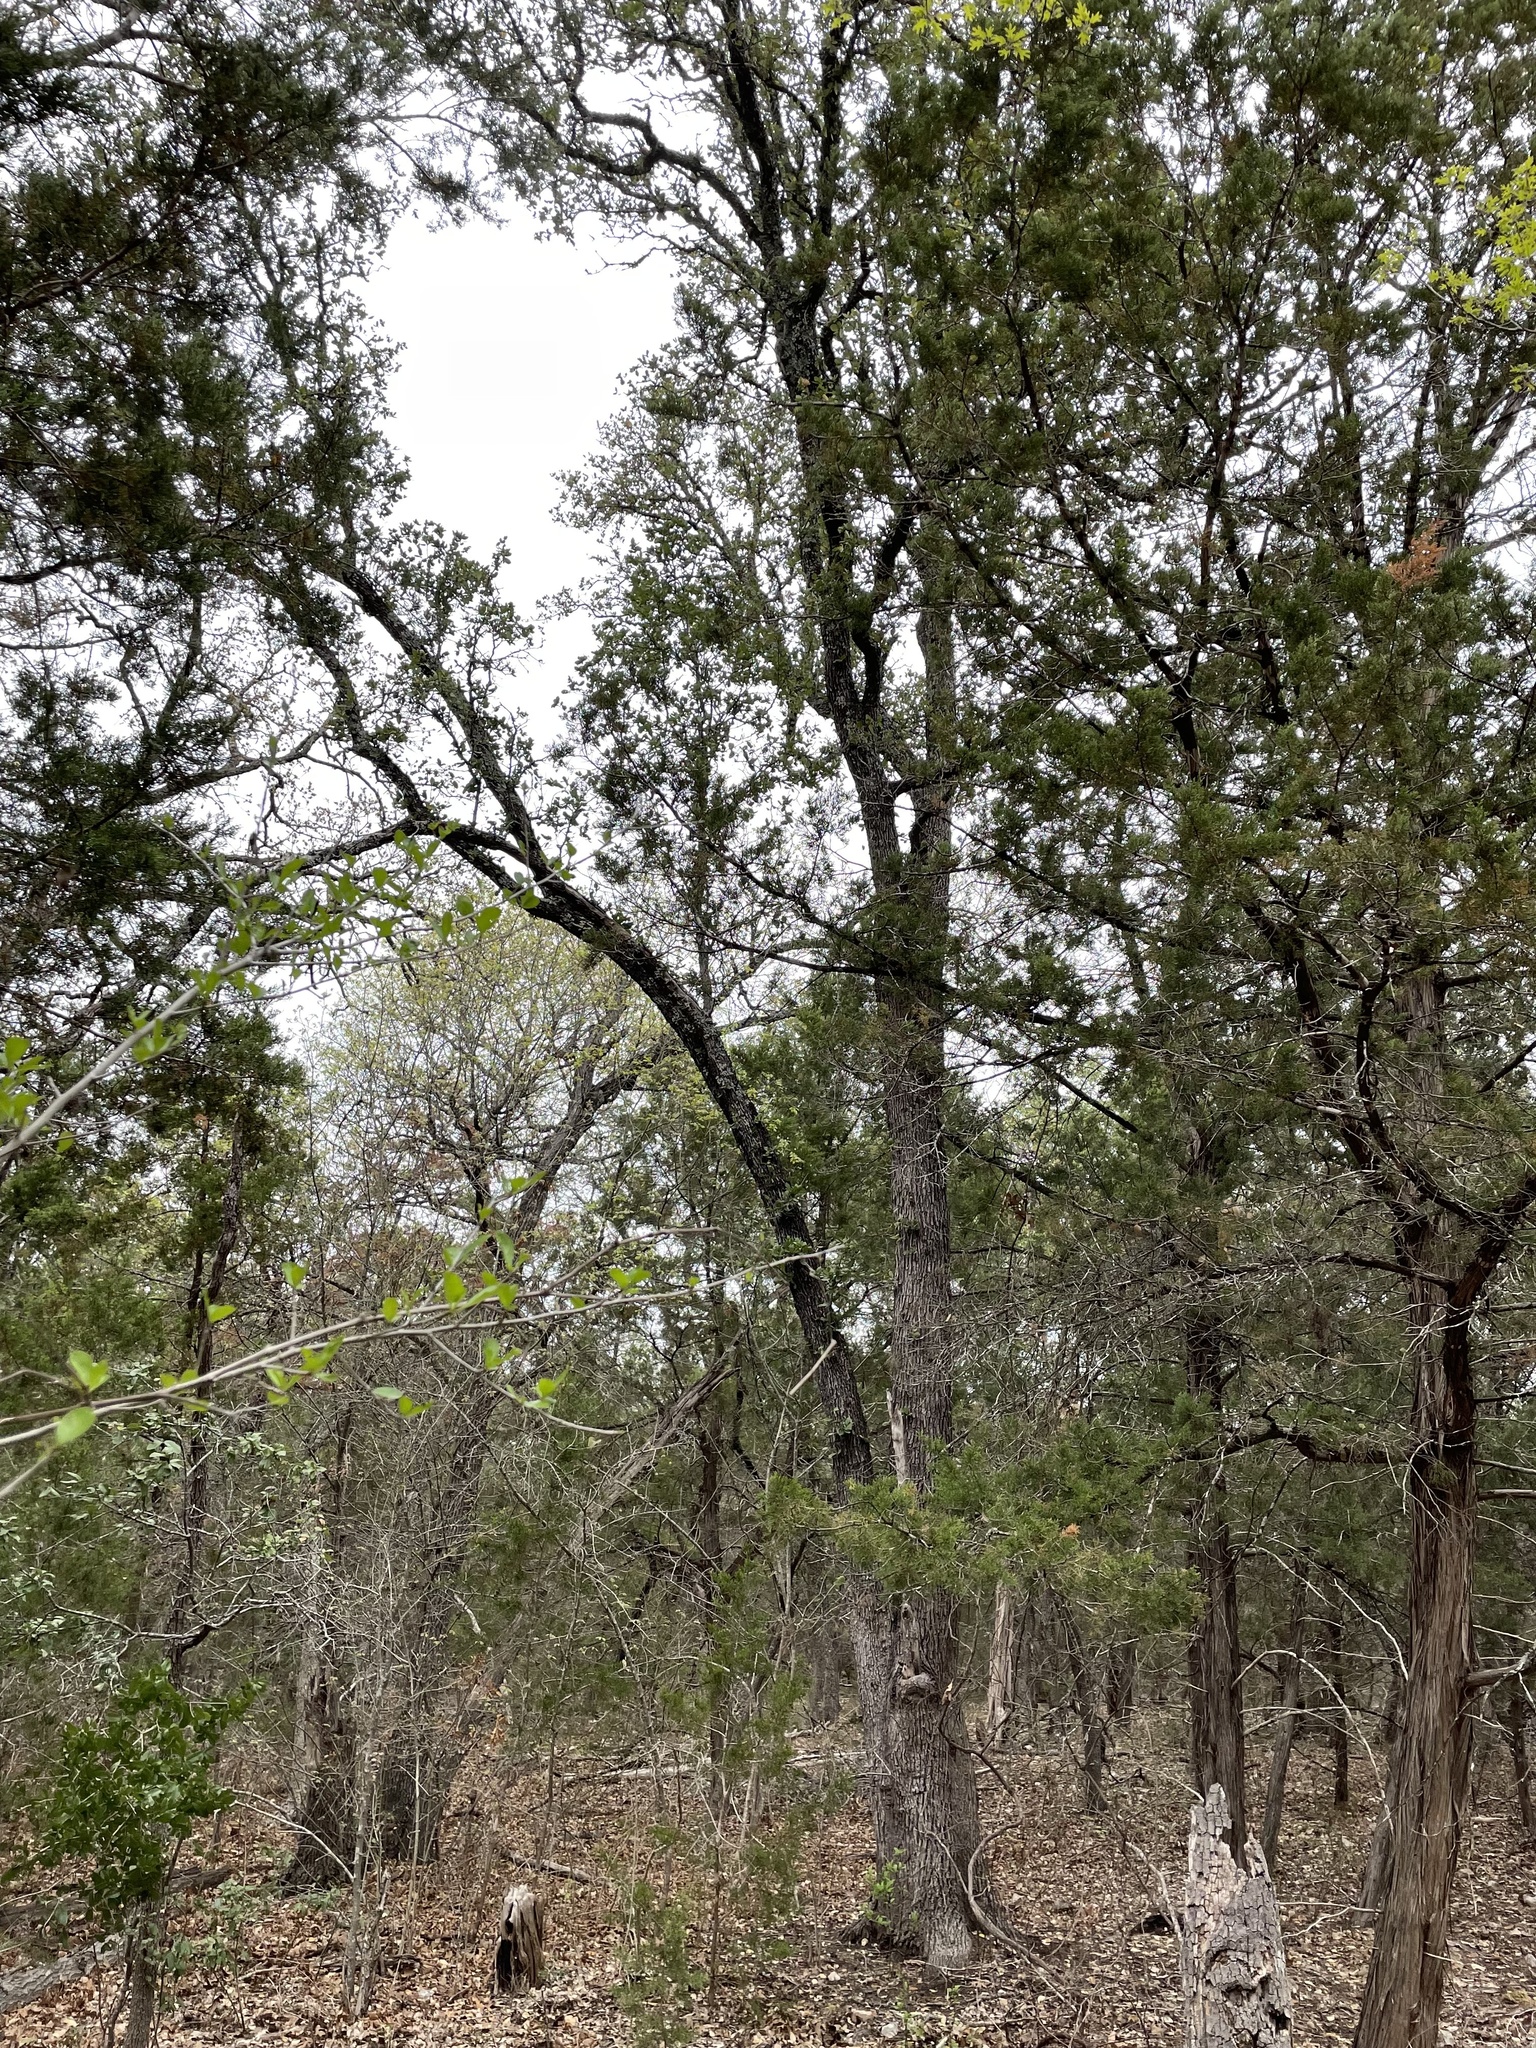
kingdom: Plantae
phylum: Tracheophyta
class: Magnoliopsida
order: Fagales
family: Fagaceae
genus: Quercus
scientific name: Quercus fusiformis
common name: Texas live oak
